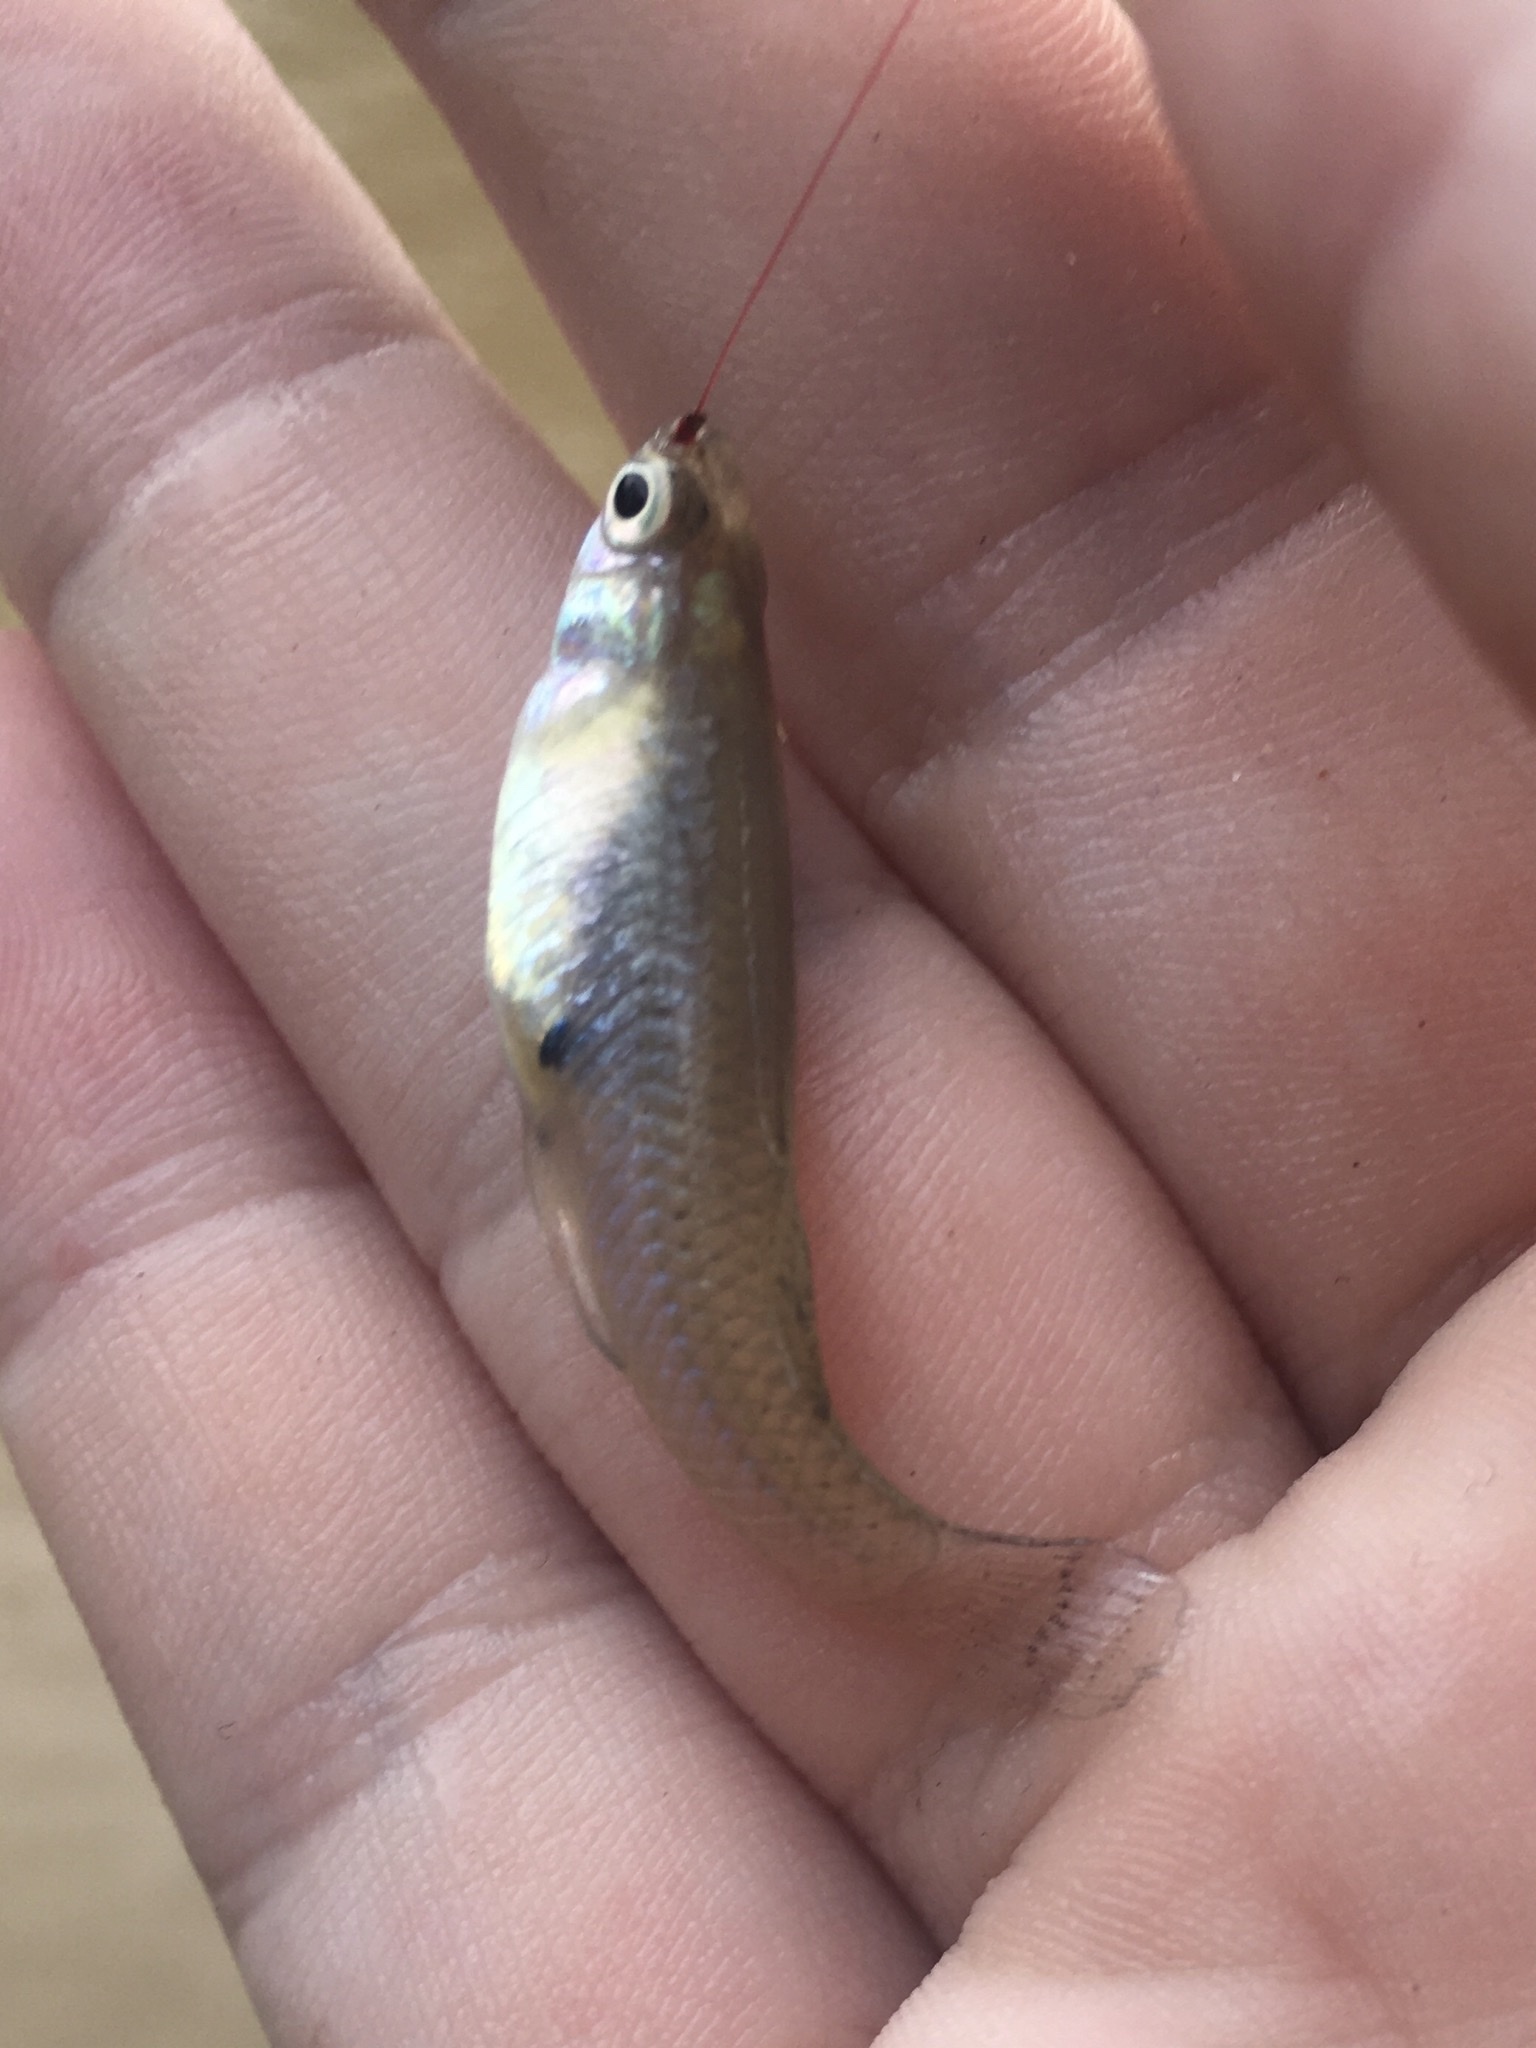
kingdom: Animalia
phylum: Chordata
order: Cyprinodontiformes
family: Poeciliidae
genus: Gambusia
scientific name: Gambusia affinis
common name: Mosquitofish
